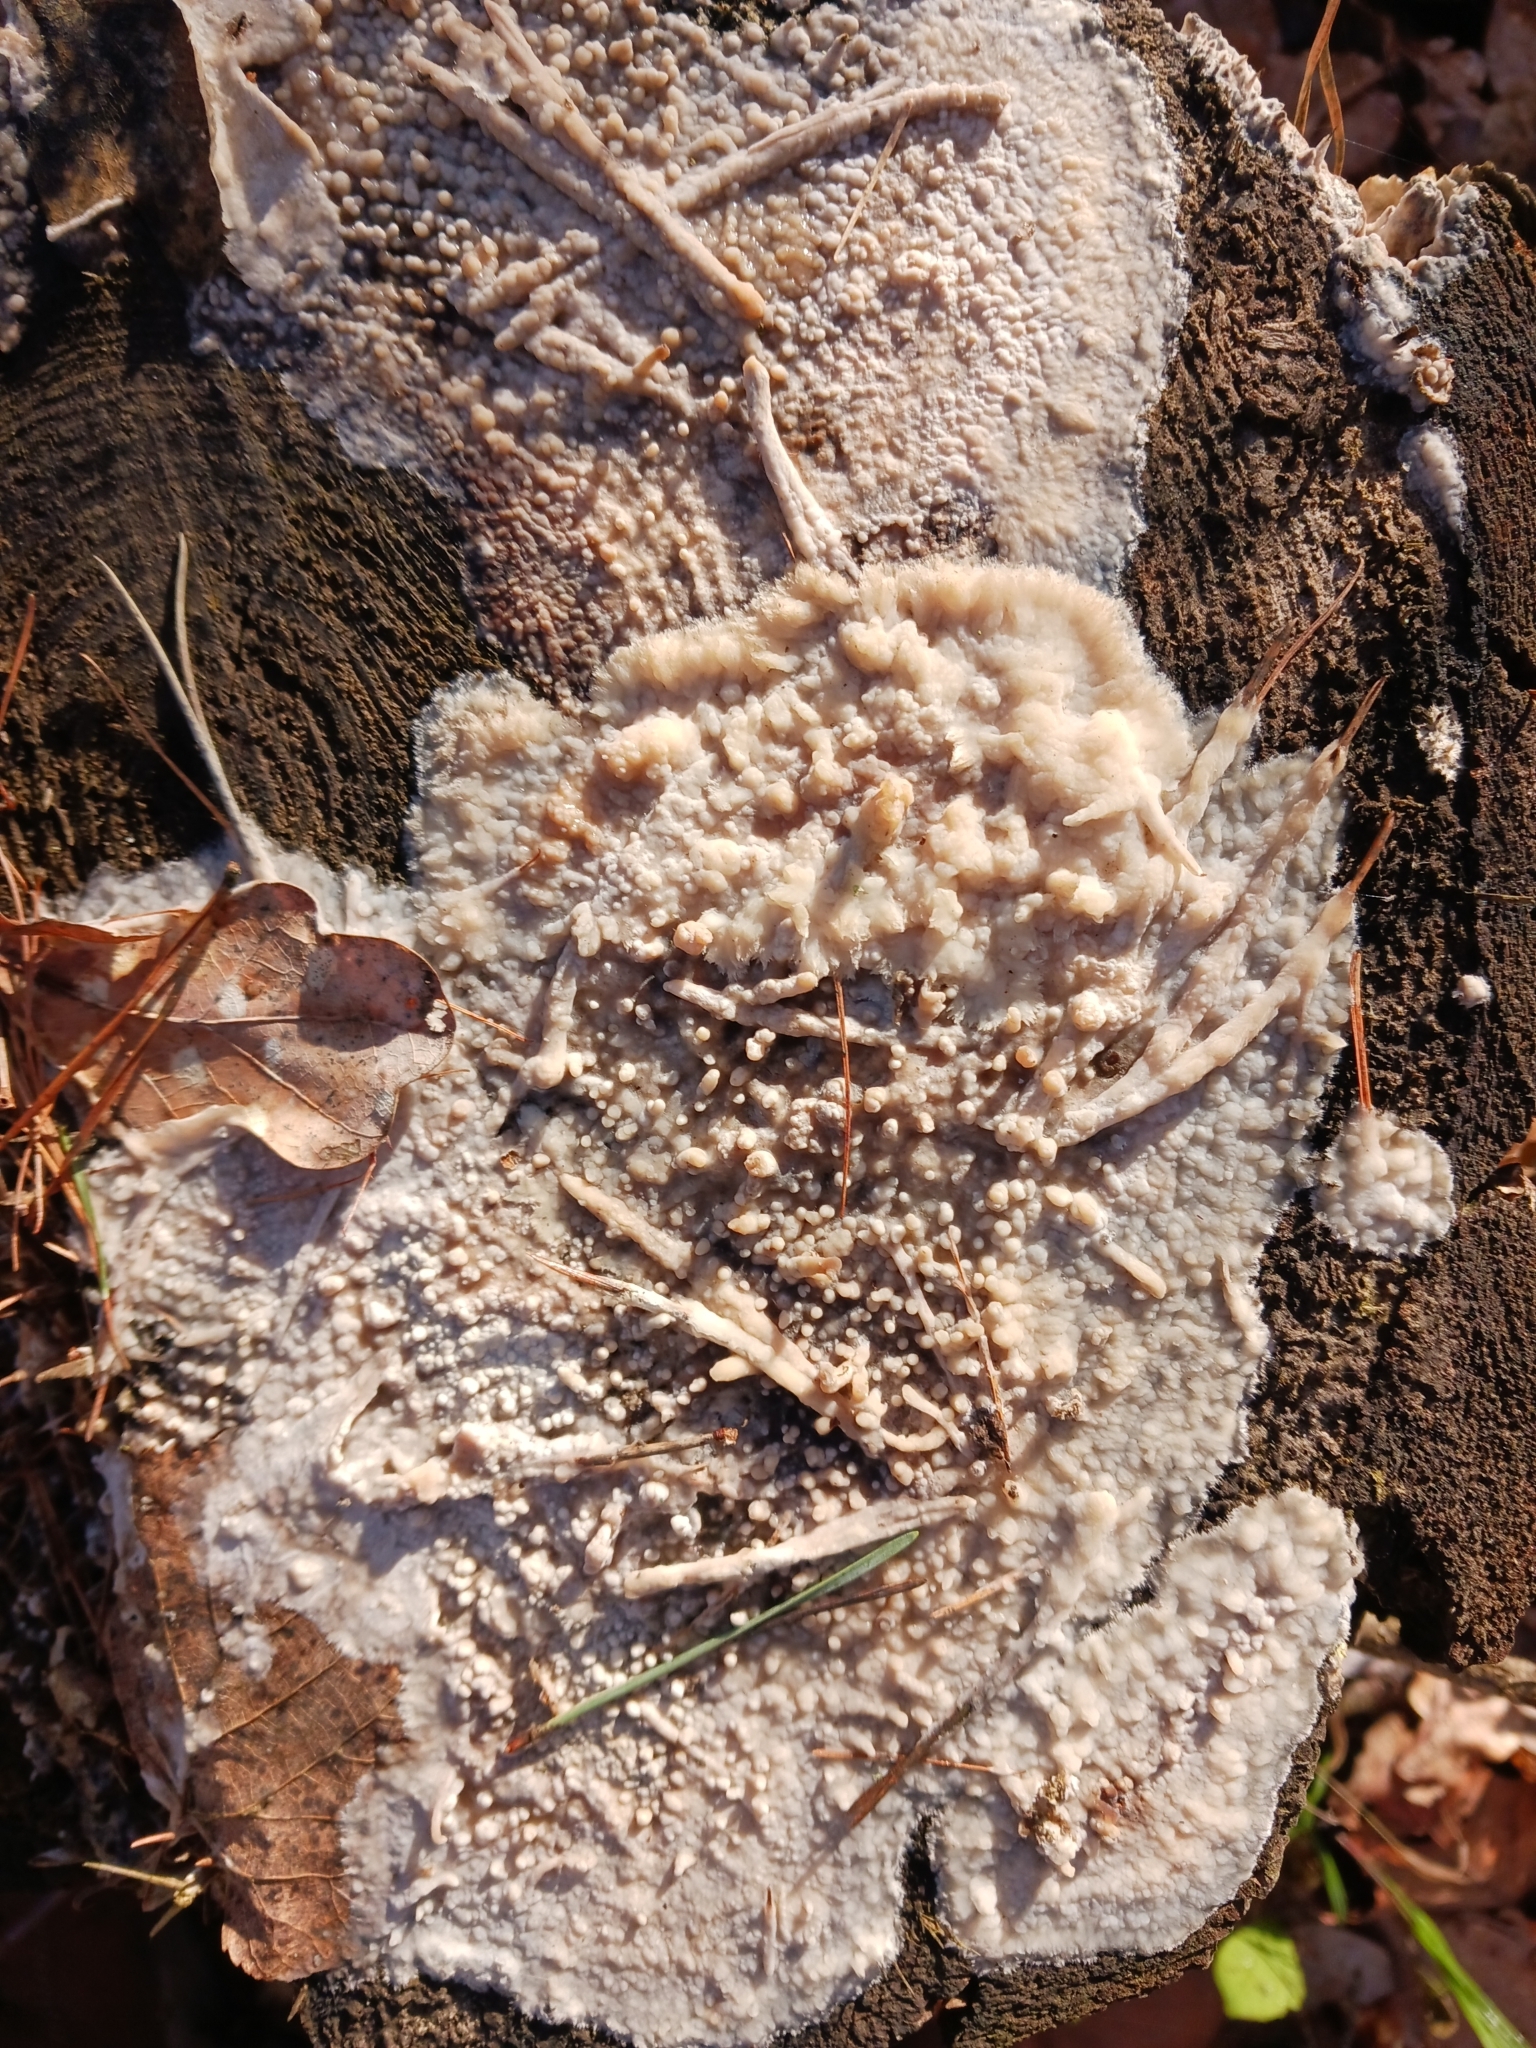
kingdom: Fungi
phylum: Basidiomycota
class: Agaricomycetes
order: Polyporales
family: Phanerochaetaceae
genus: Phlebiopsis
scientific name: Phlebiopsis gigantea
